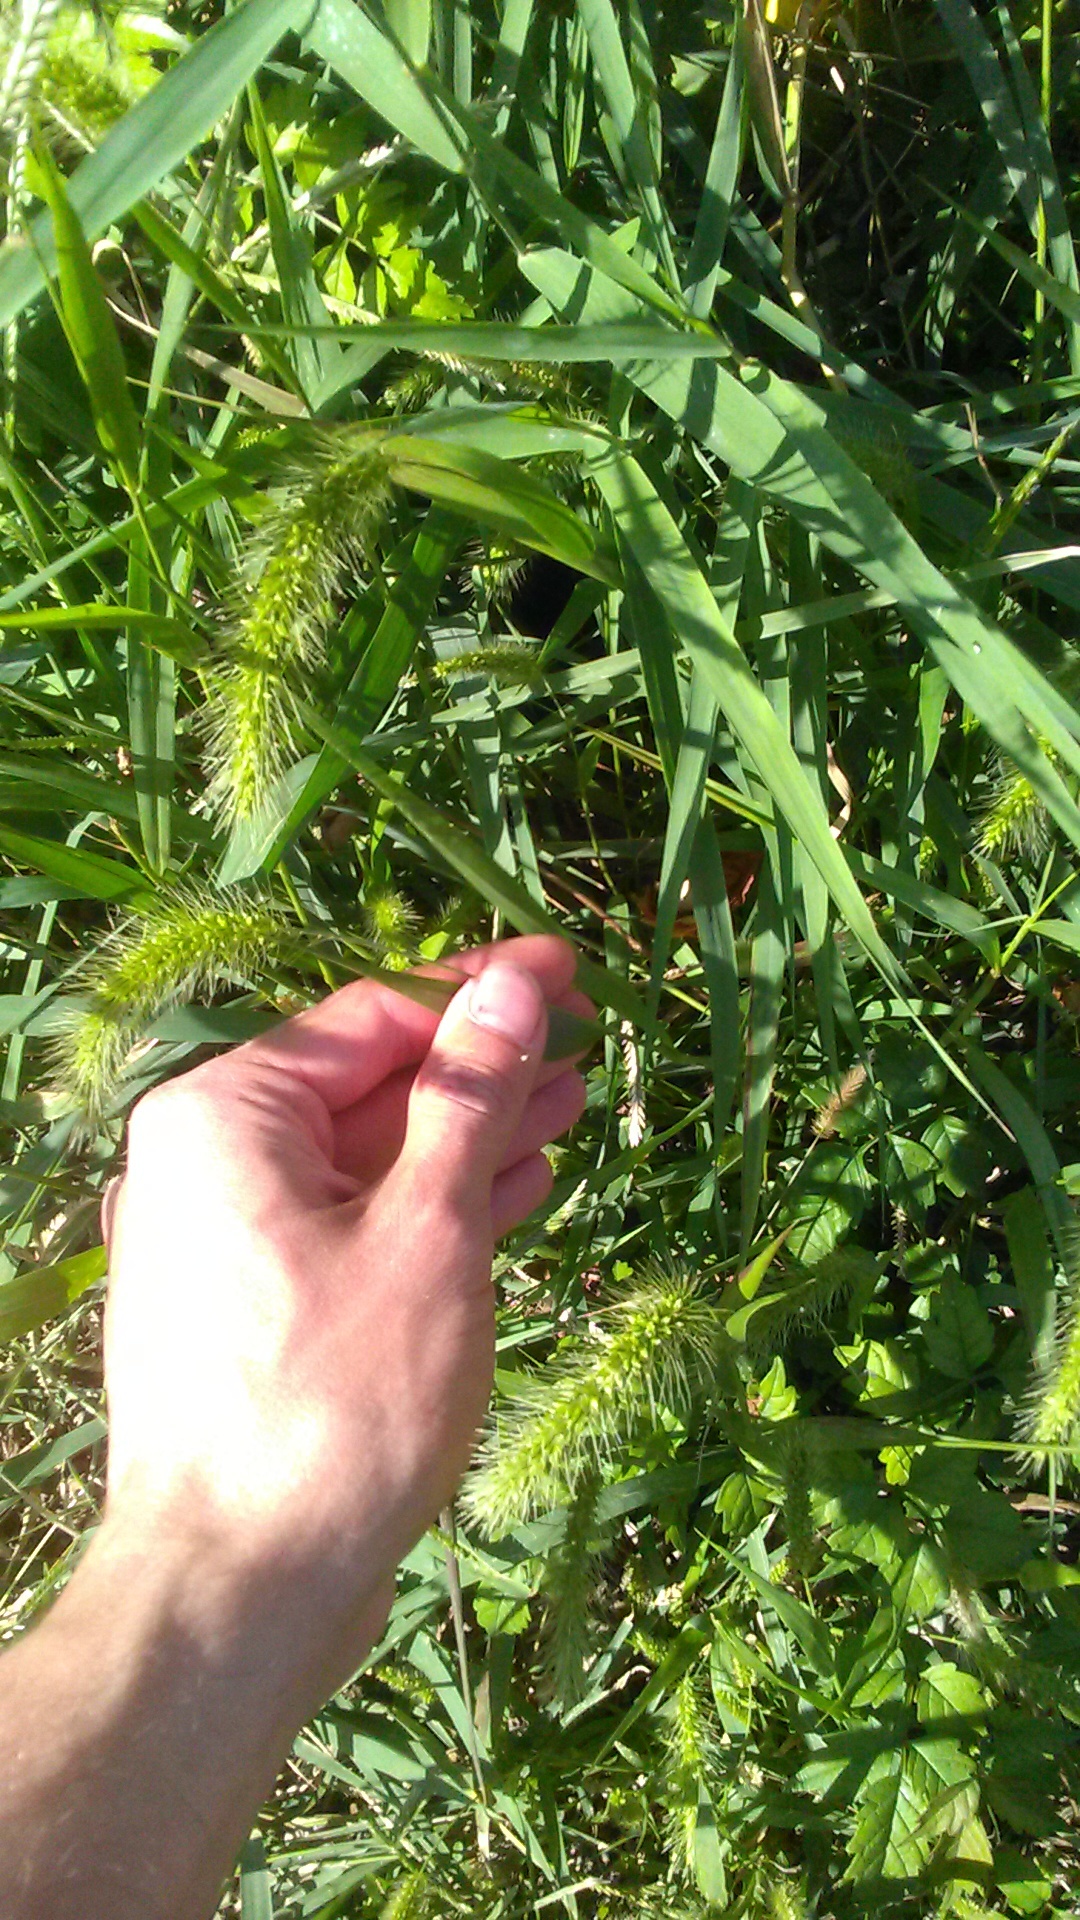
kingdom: Plantae
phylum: Tracheophyta
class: Liliopsida
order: Poales
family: Poaceae
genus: Setaria
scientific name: Setaria viridis
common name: Green bristlegrass
